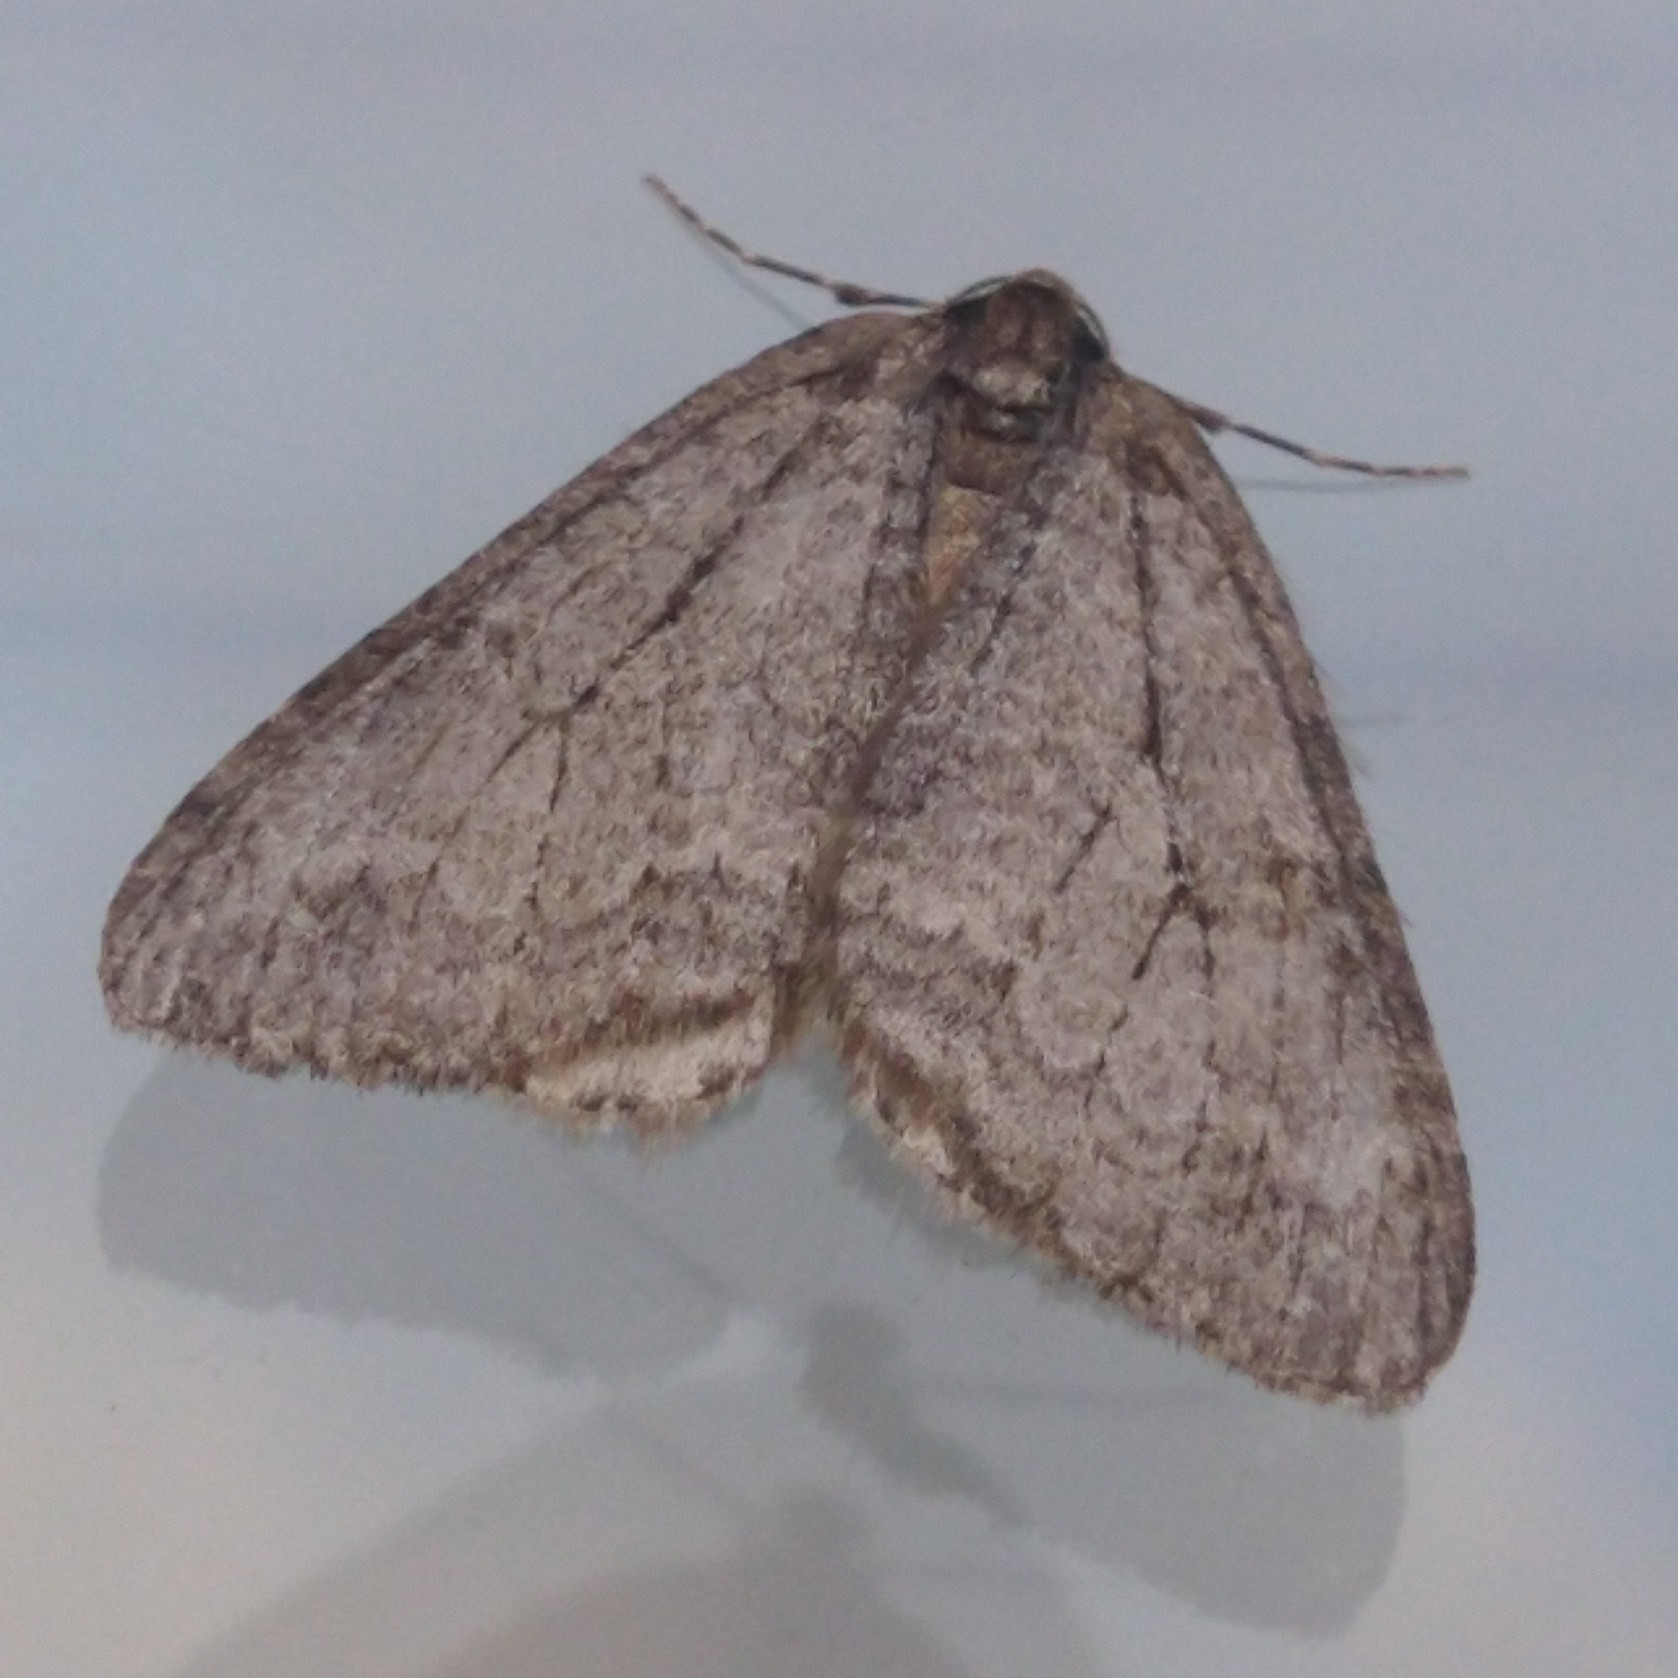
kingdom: Animalia
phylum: Arthropoda
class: Insecta
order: Lepidoptera
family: Geometridae
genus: Epirrita
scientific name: Epirrita
